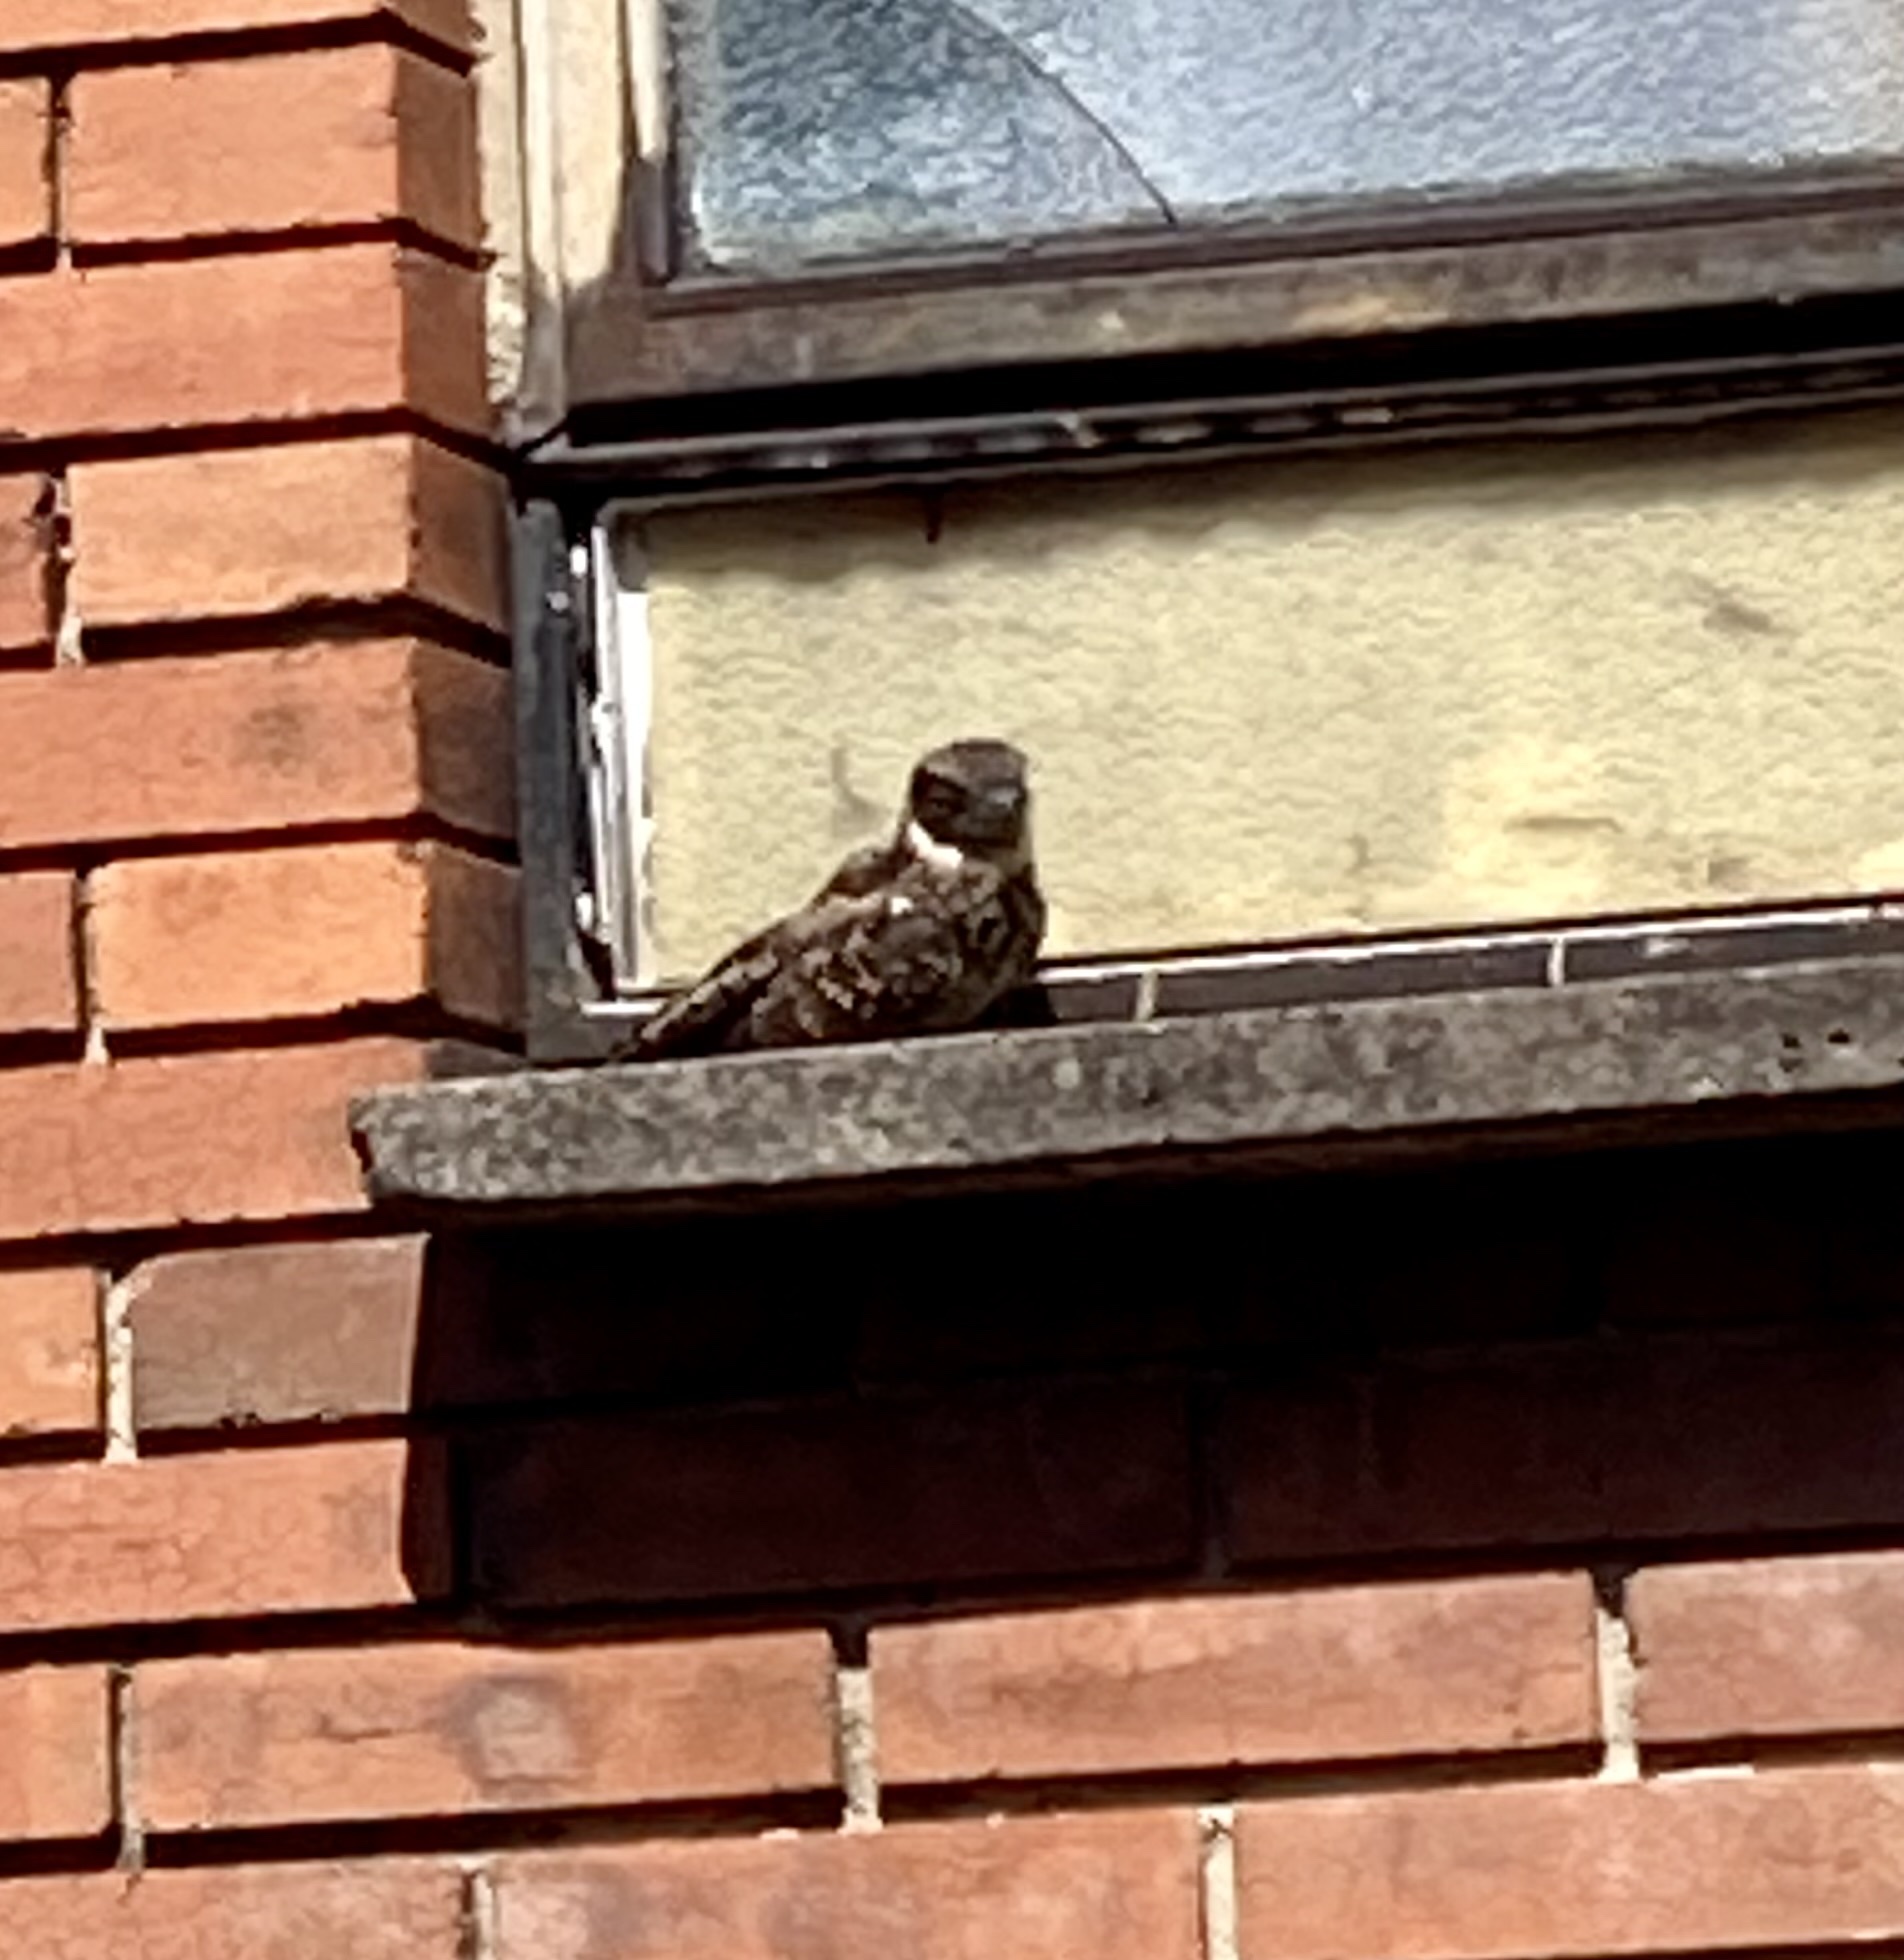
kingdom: Animalia
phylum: Chordata
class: Aves
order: Caprimulgiformes
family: Caprimulgidae
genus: Systellura
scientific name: Systellura longirostris
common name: Band-winged nightjar
